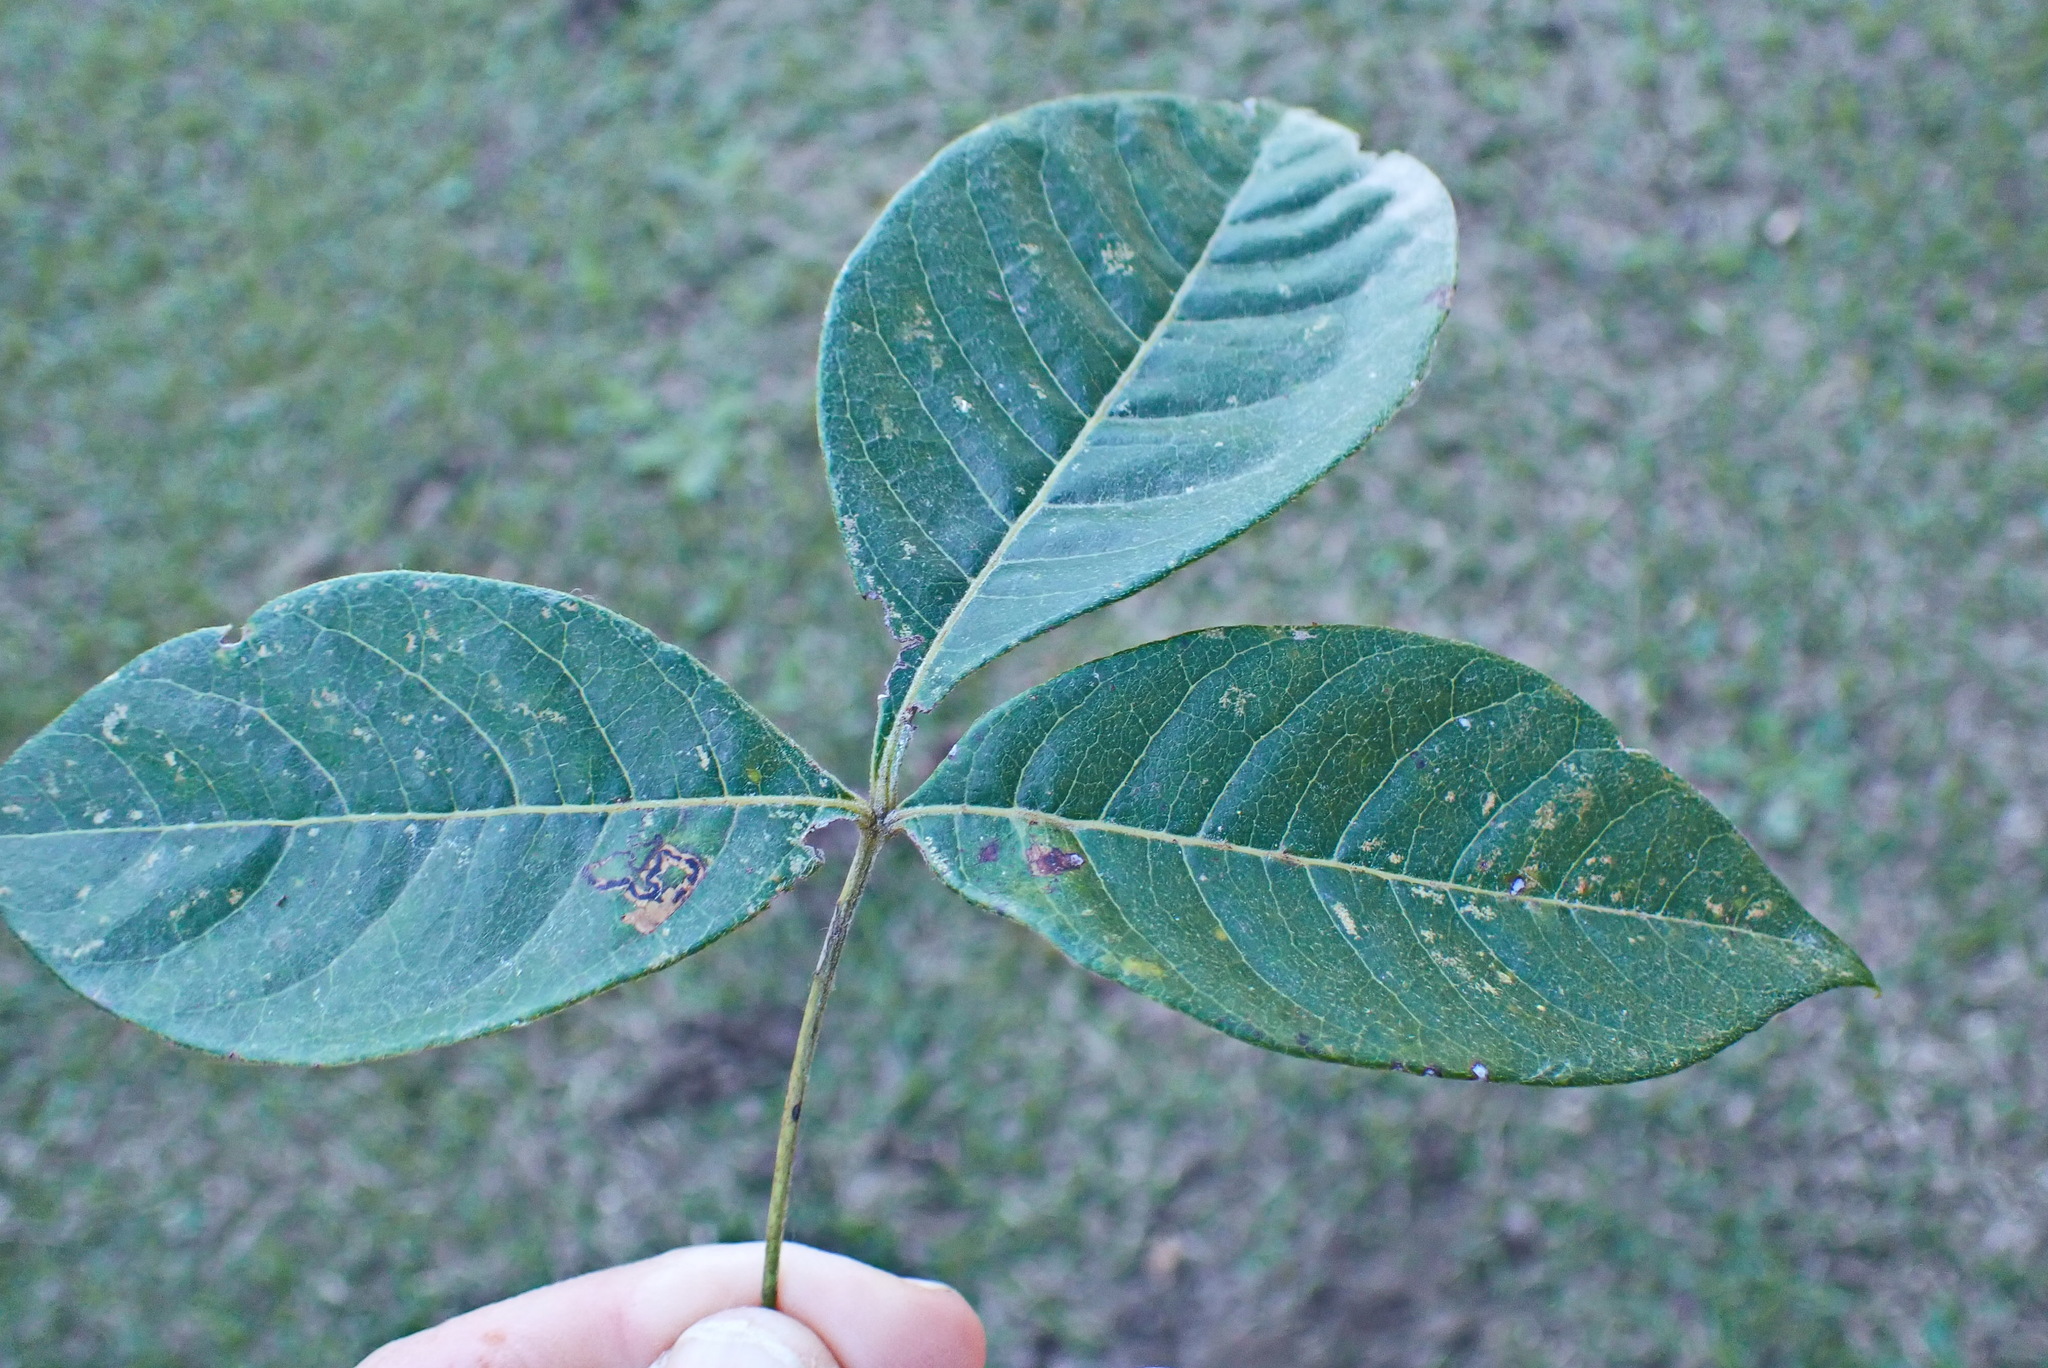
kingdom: Plantae
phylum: Tracheophyta
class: Magnoliopsida
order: Sapindales
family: Anacardiaceae
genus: Searsia
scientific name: Searsia chirindensis
